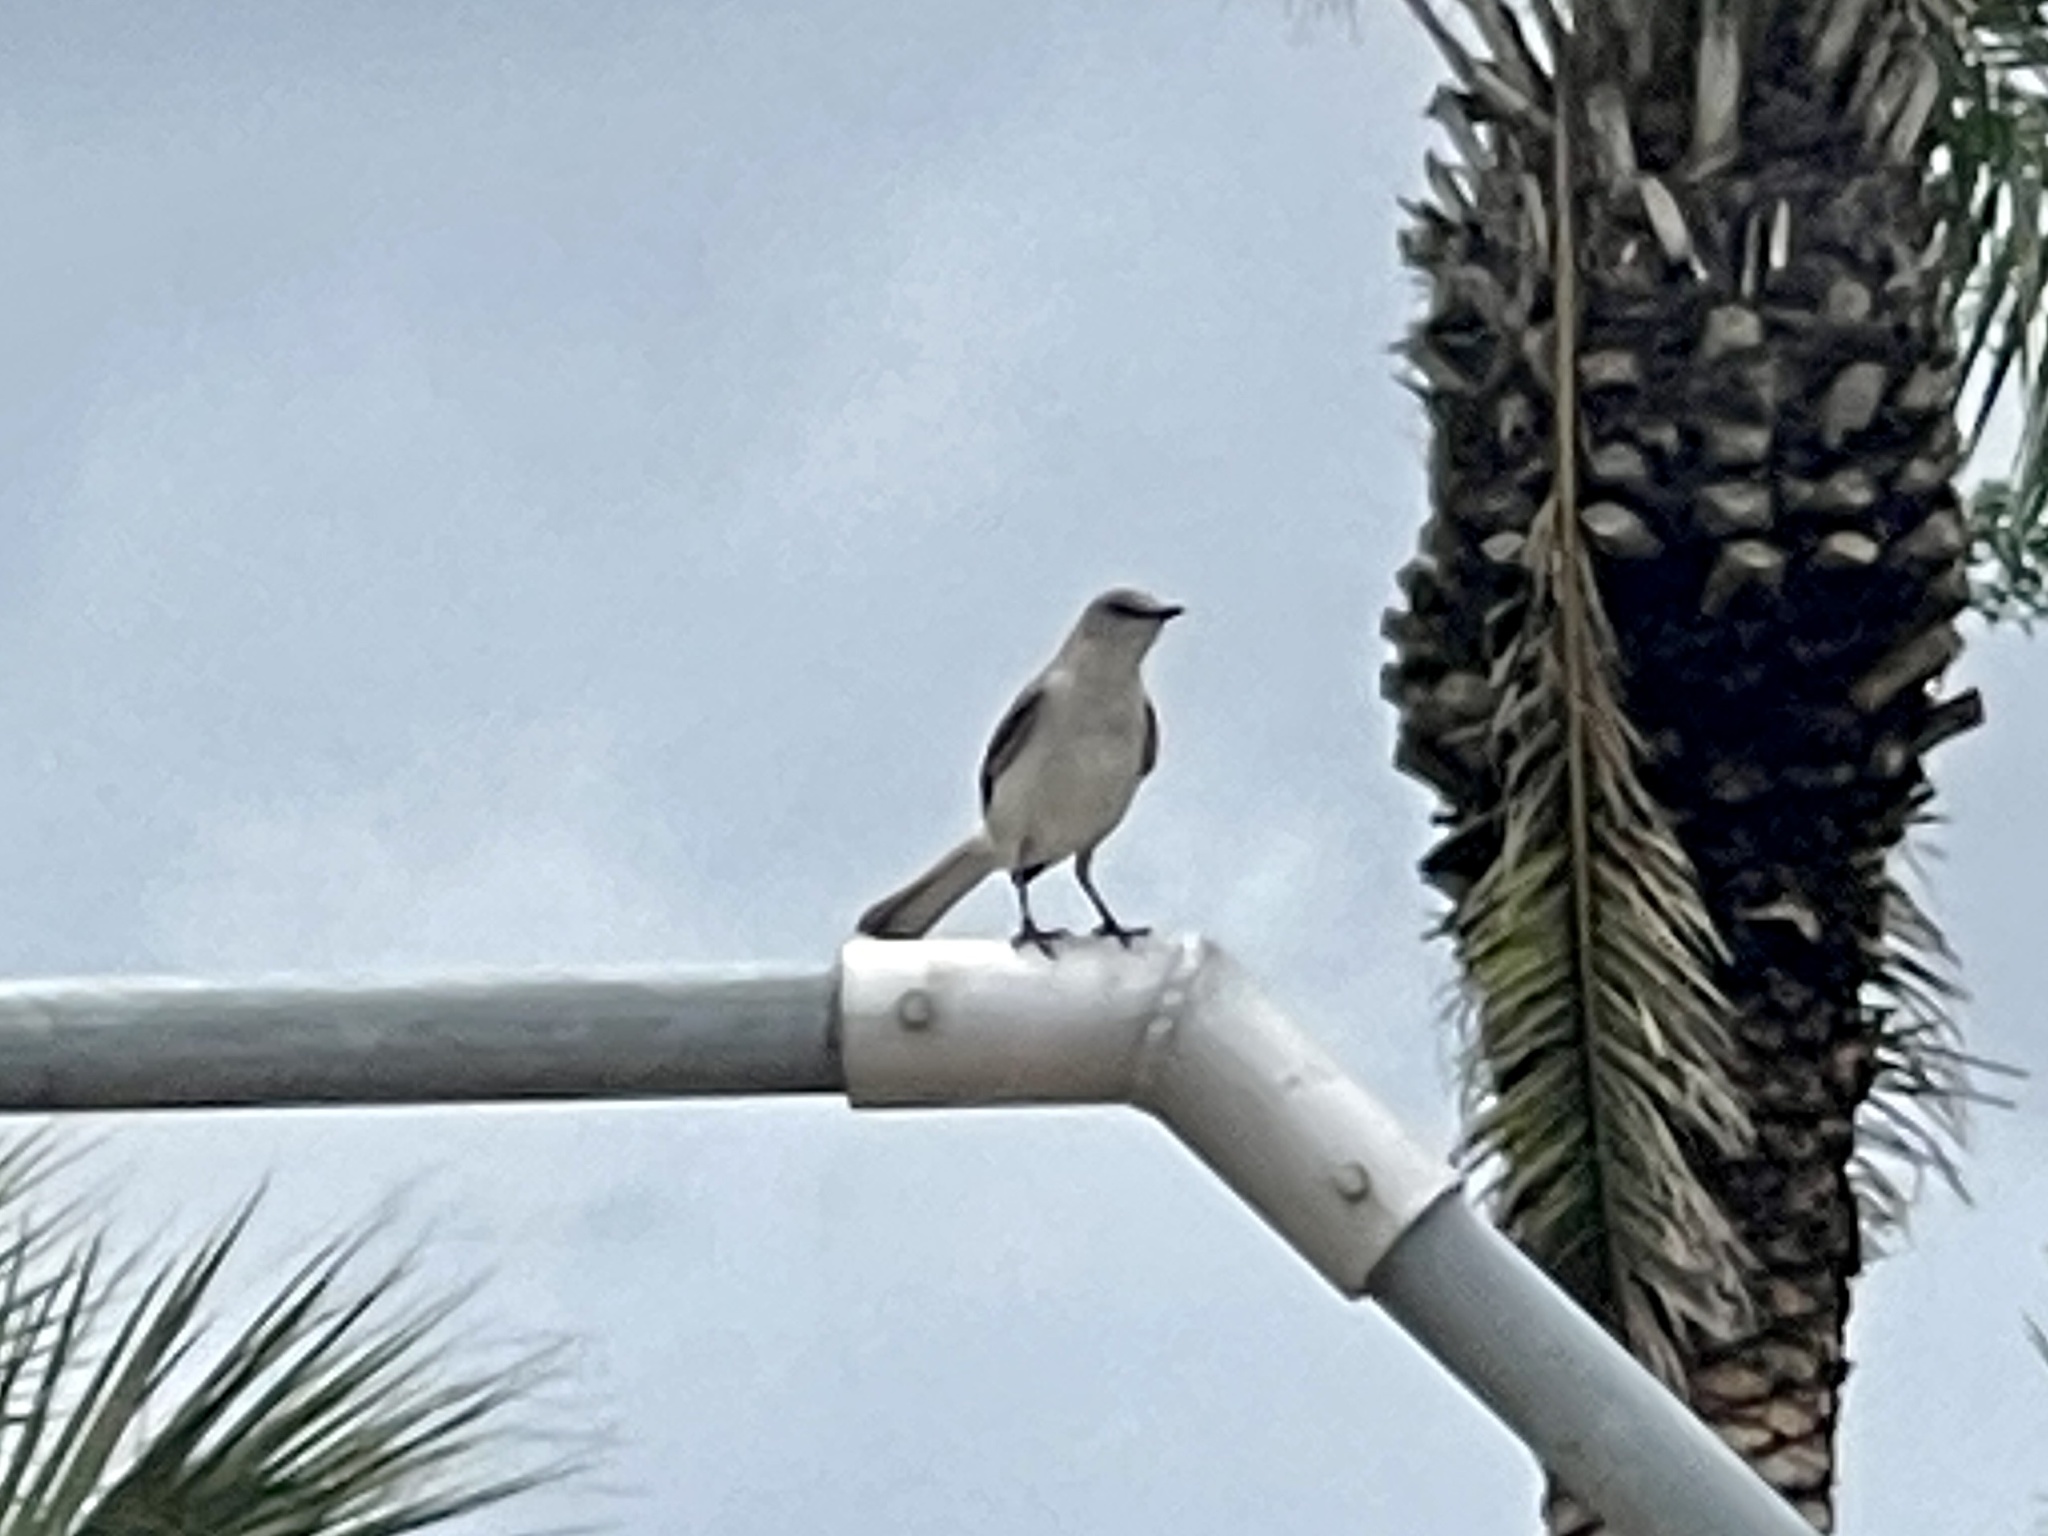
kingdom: Animalia
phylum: Chordata
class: Aves
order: Passeriformes
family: Mimidae
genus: Mimus
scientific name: Mimus polyglottos
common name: Northern mockingbird
